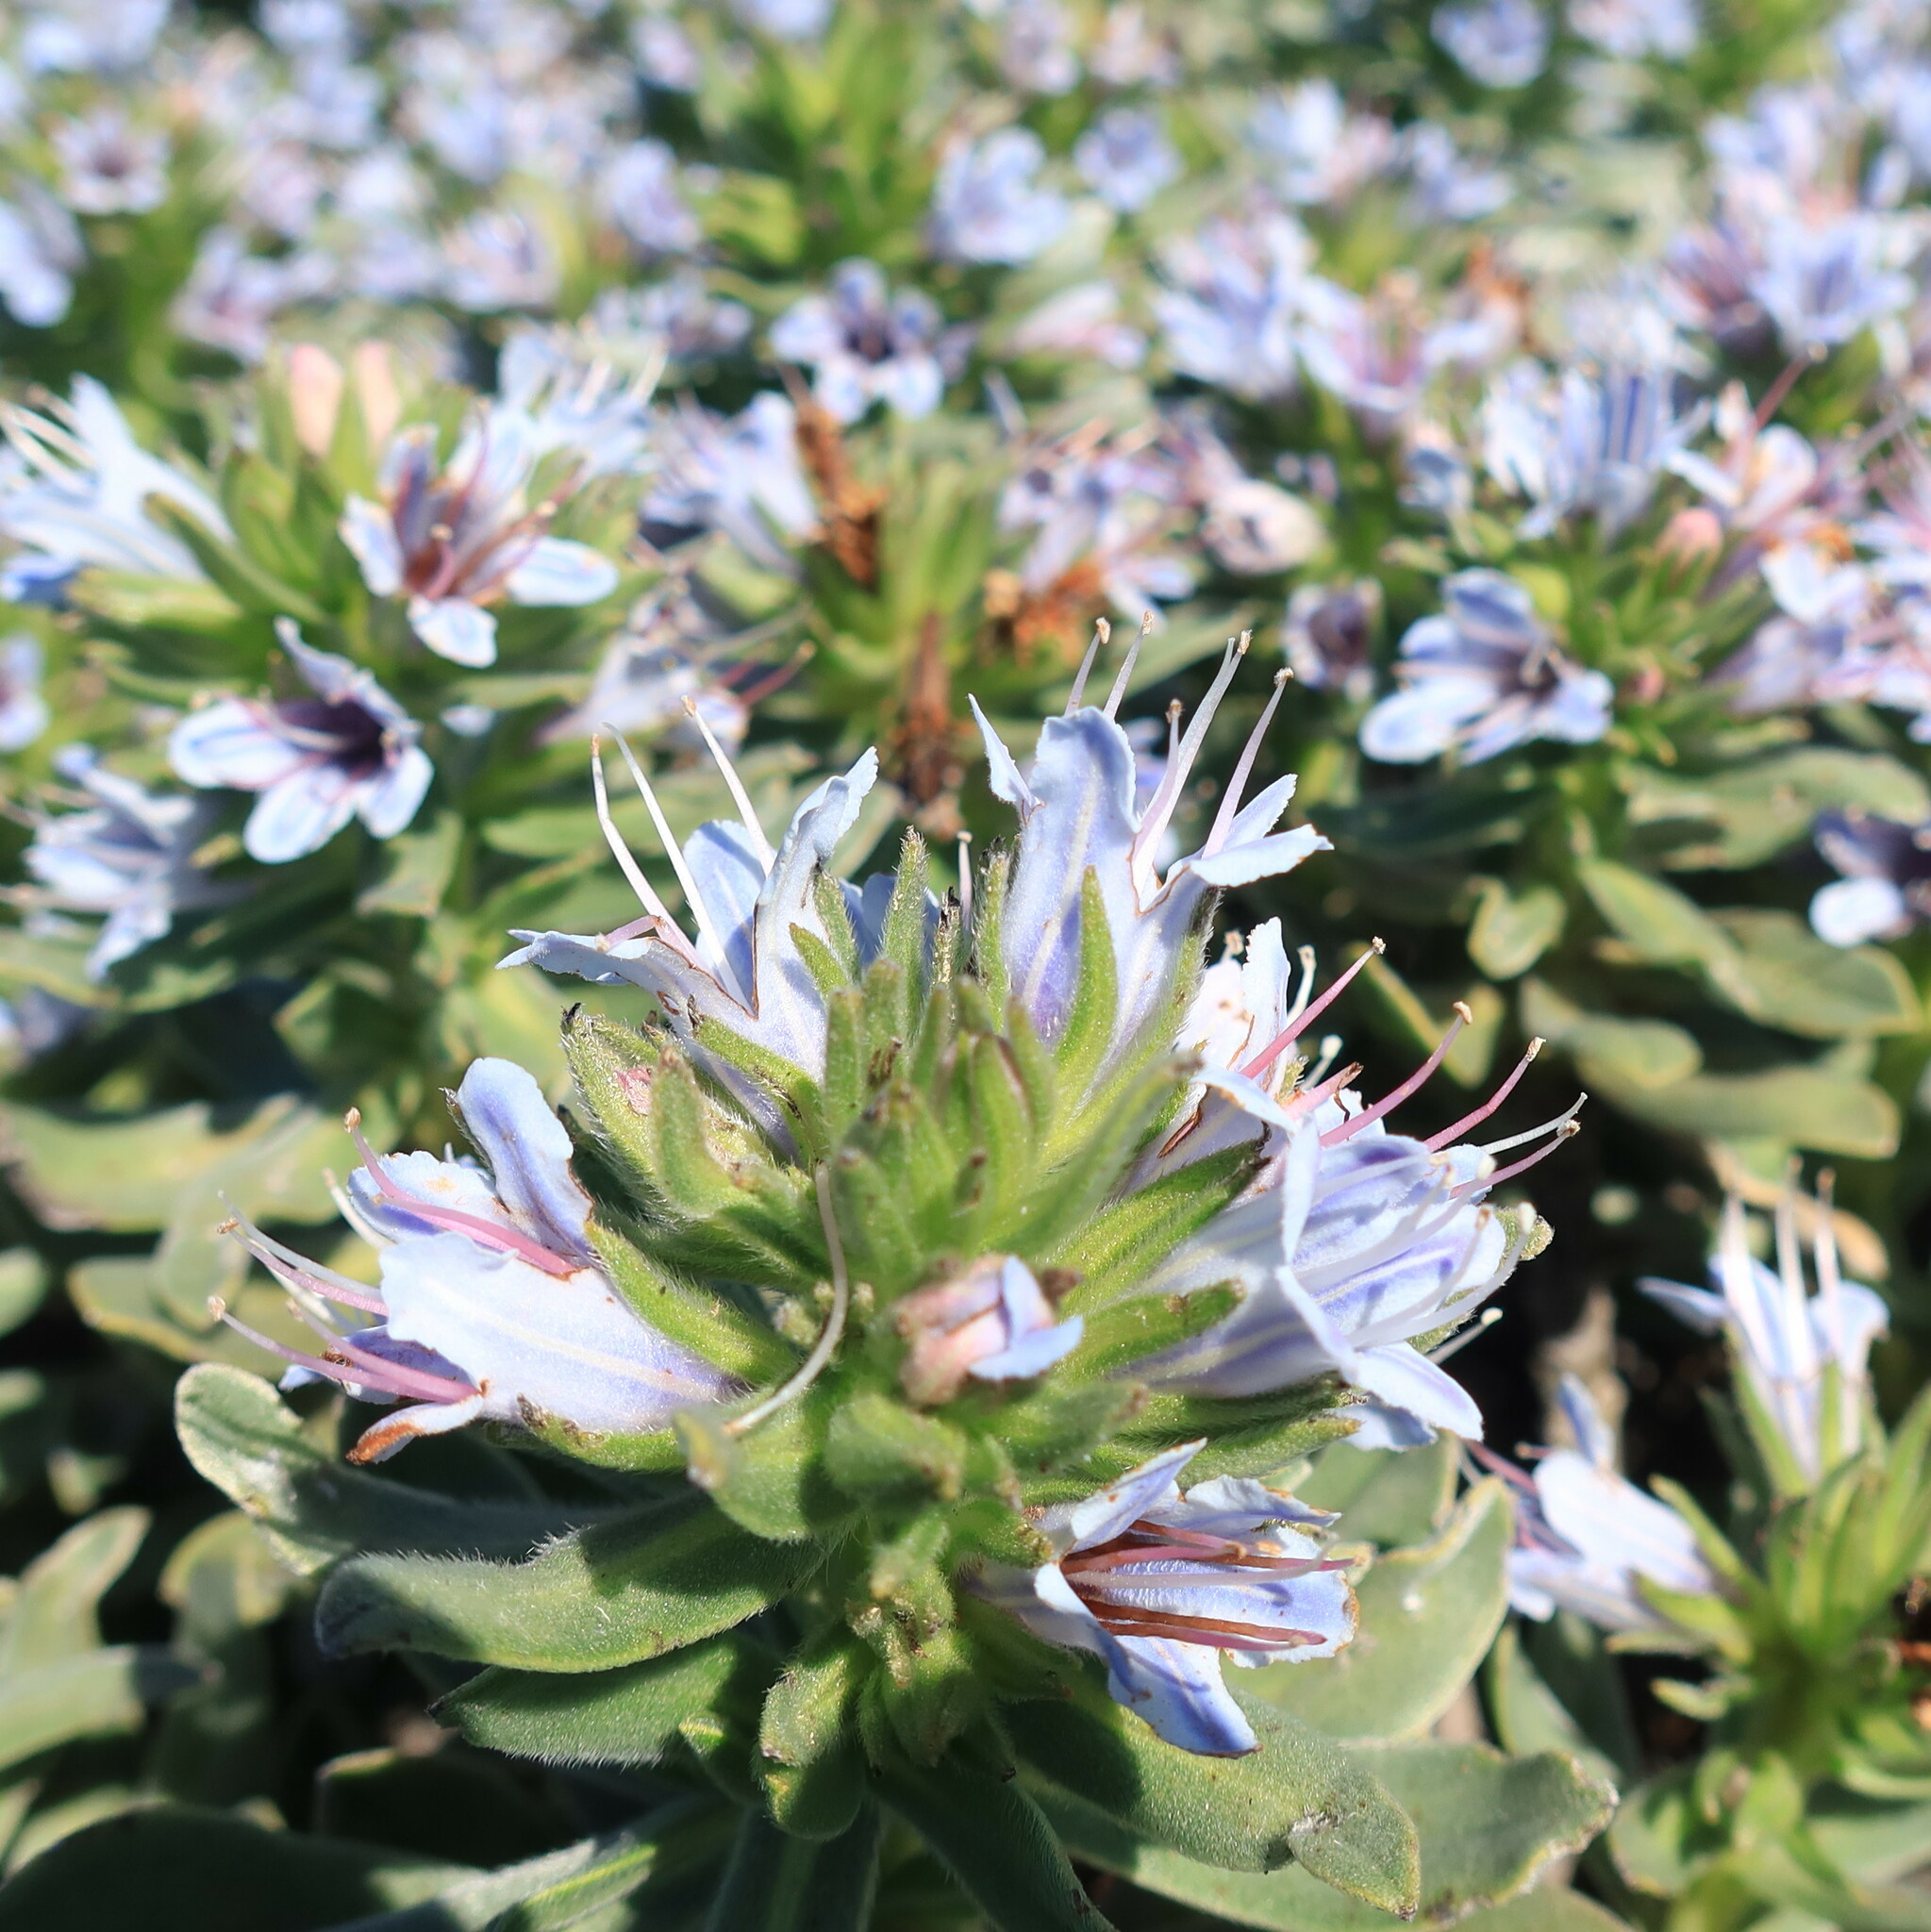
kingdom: Plantae
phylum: Tracheophyta
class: Magnoliopsida
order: Boraginales
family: Boraginaceae
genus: Lobostemon
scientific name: Lobostemon montanus
